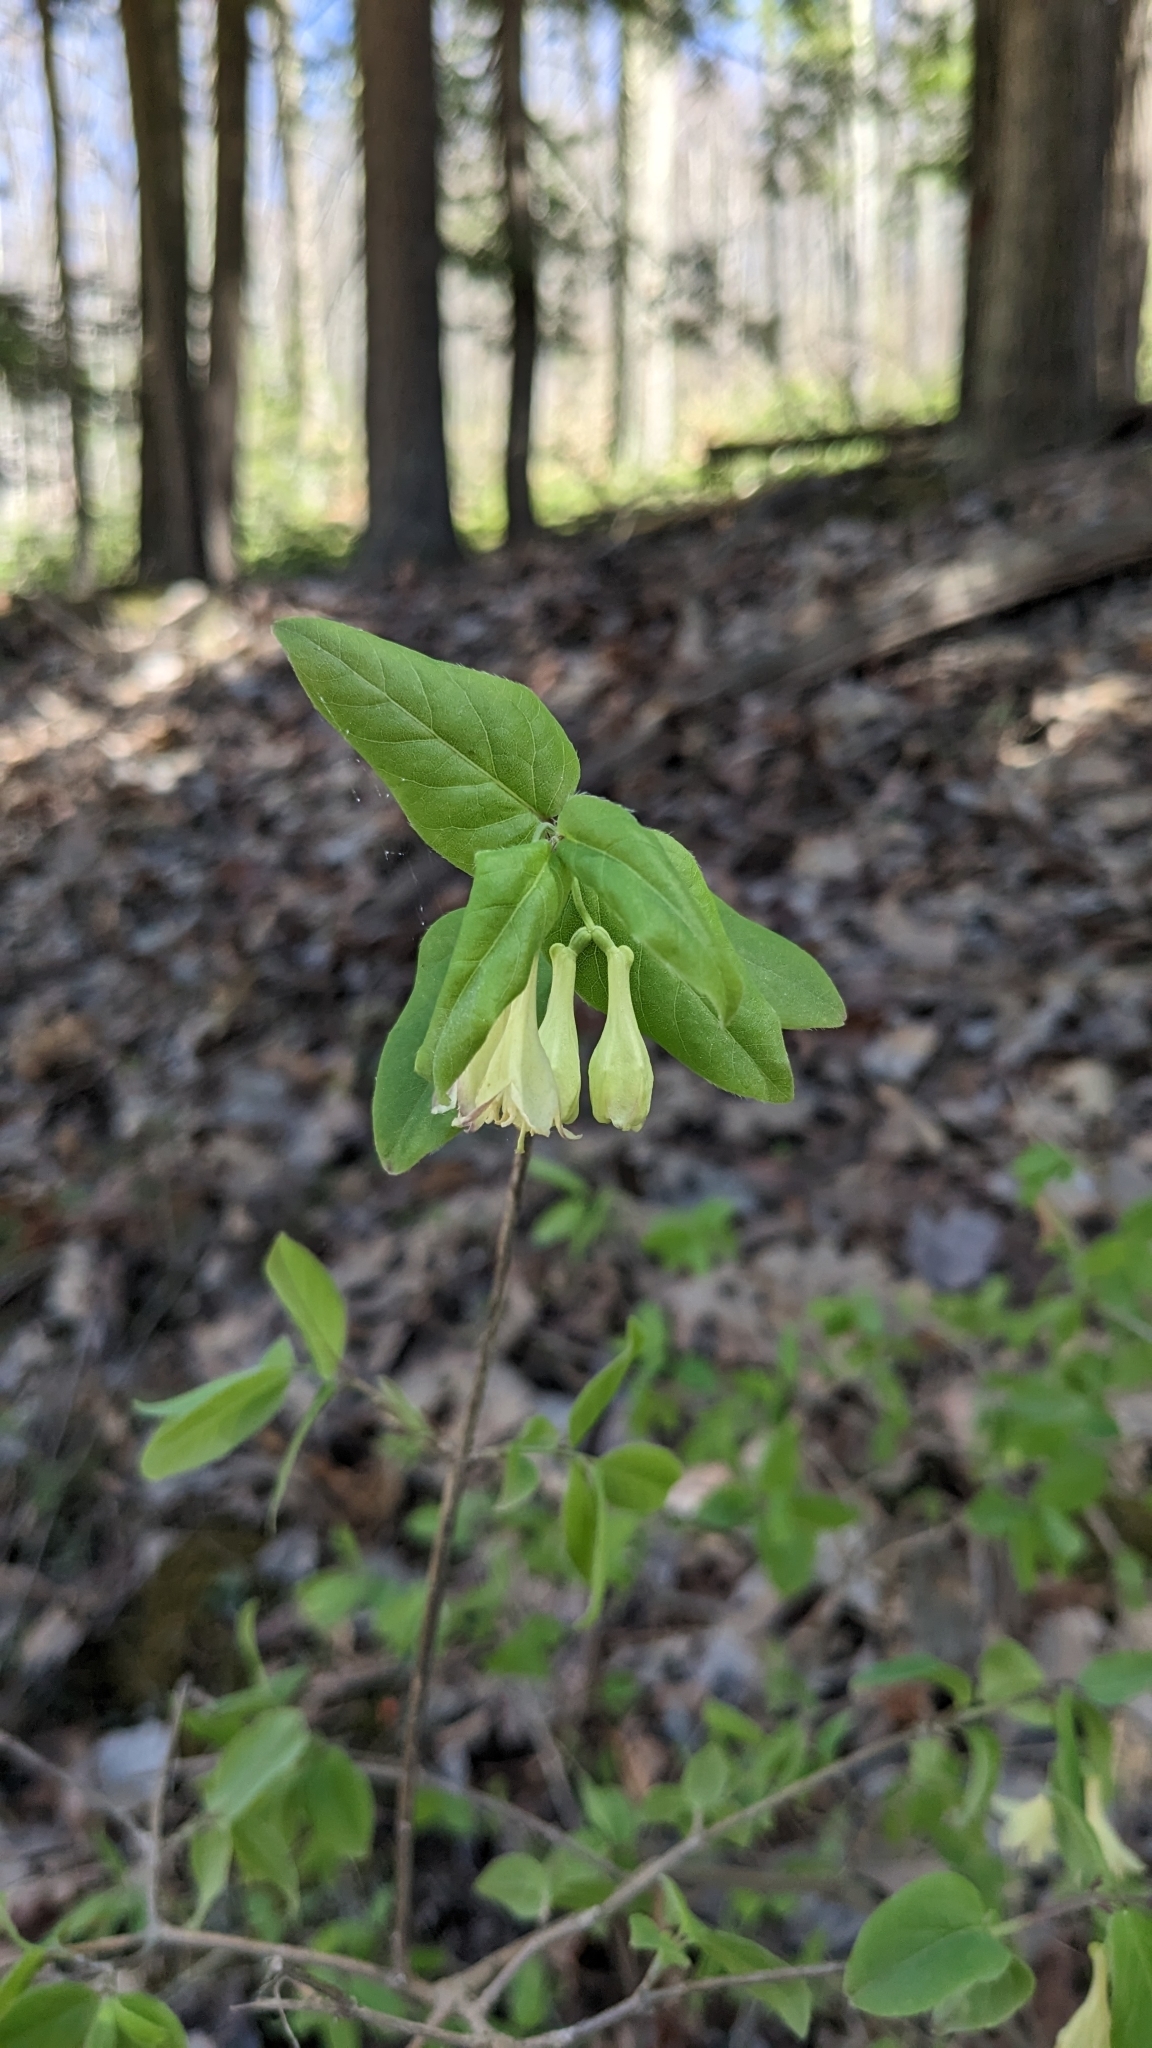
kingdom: Plantae
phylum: Tracheophyta
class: Magnoliopsida
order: Dipsacales
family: Caprifoliaceae
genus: Lonicera
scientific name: Lonicera canadensis
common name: American fly-honeysuckle
